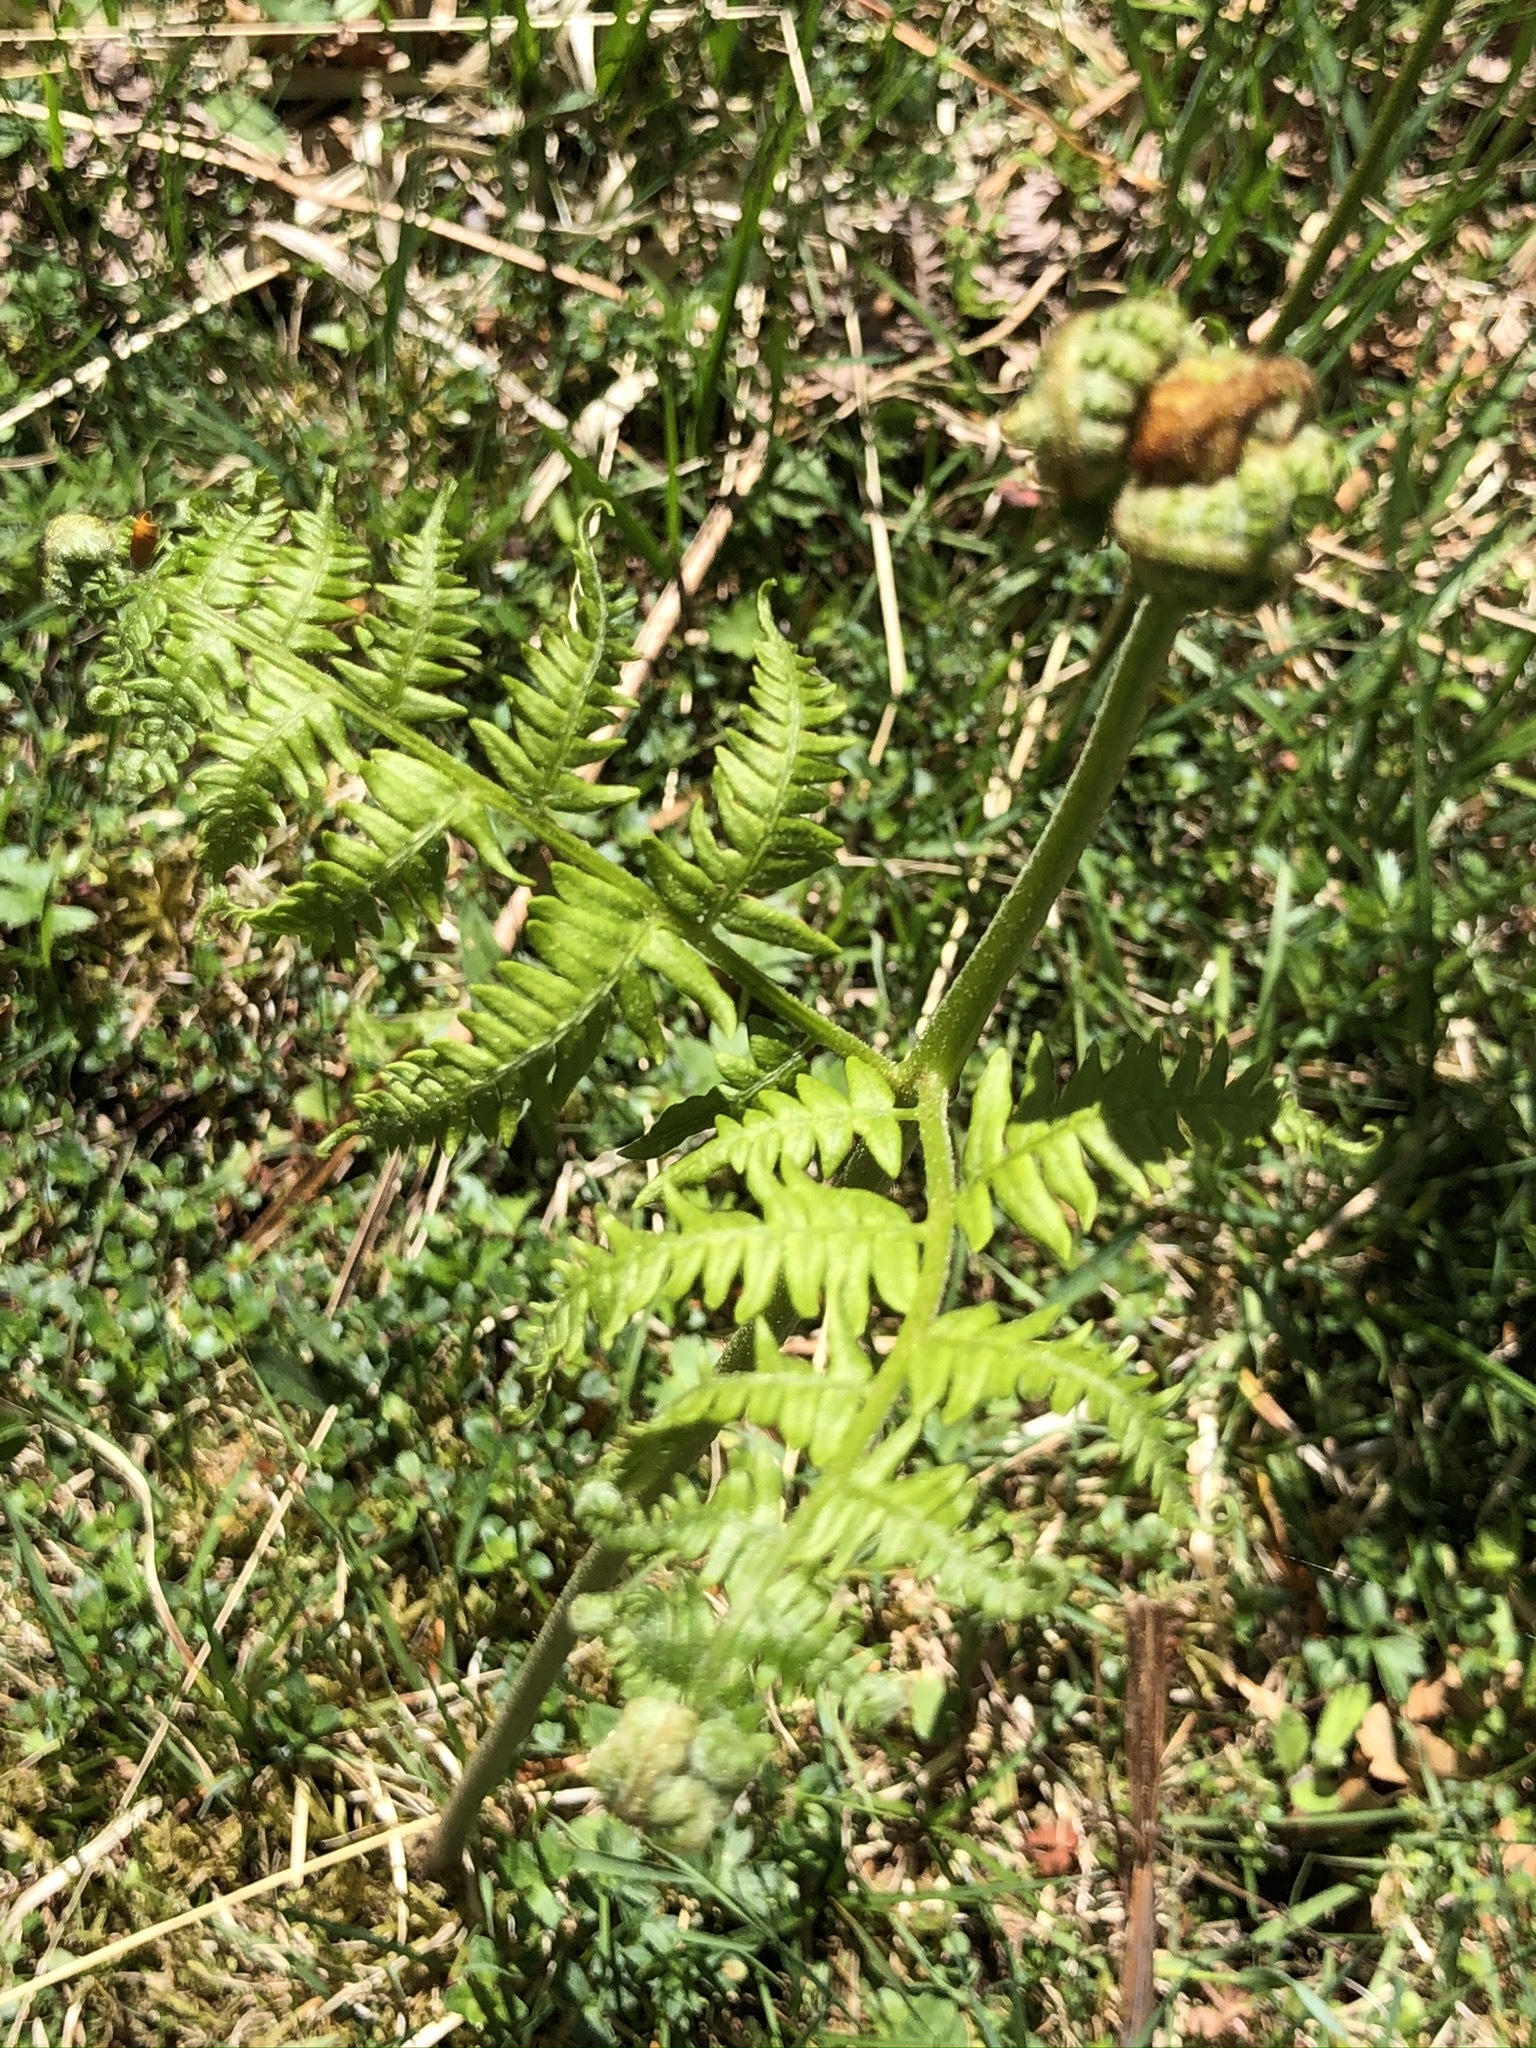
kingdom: Plantae
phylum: Tracheophyta
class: Polypodiopsida
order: Polypodiales
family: Dennstaedtiaceae
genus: Pteridium
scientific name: Pteridium aquilinum
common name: Bracken
